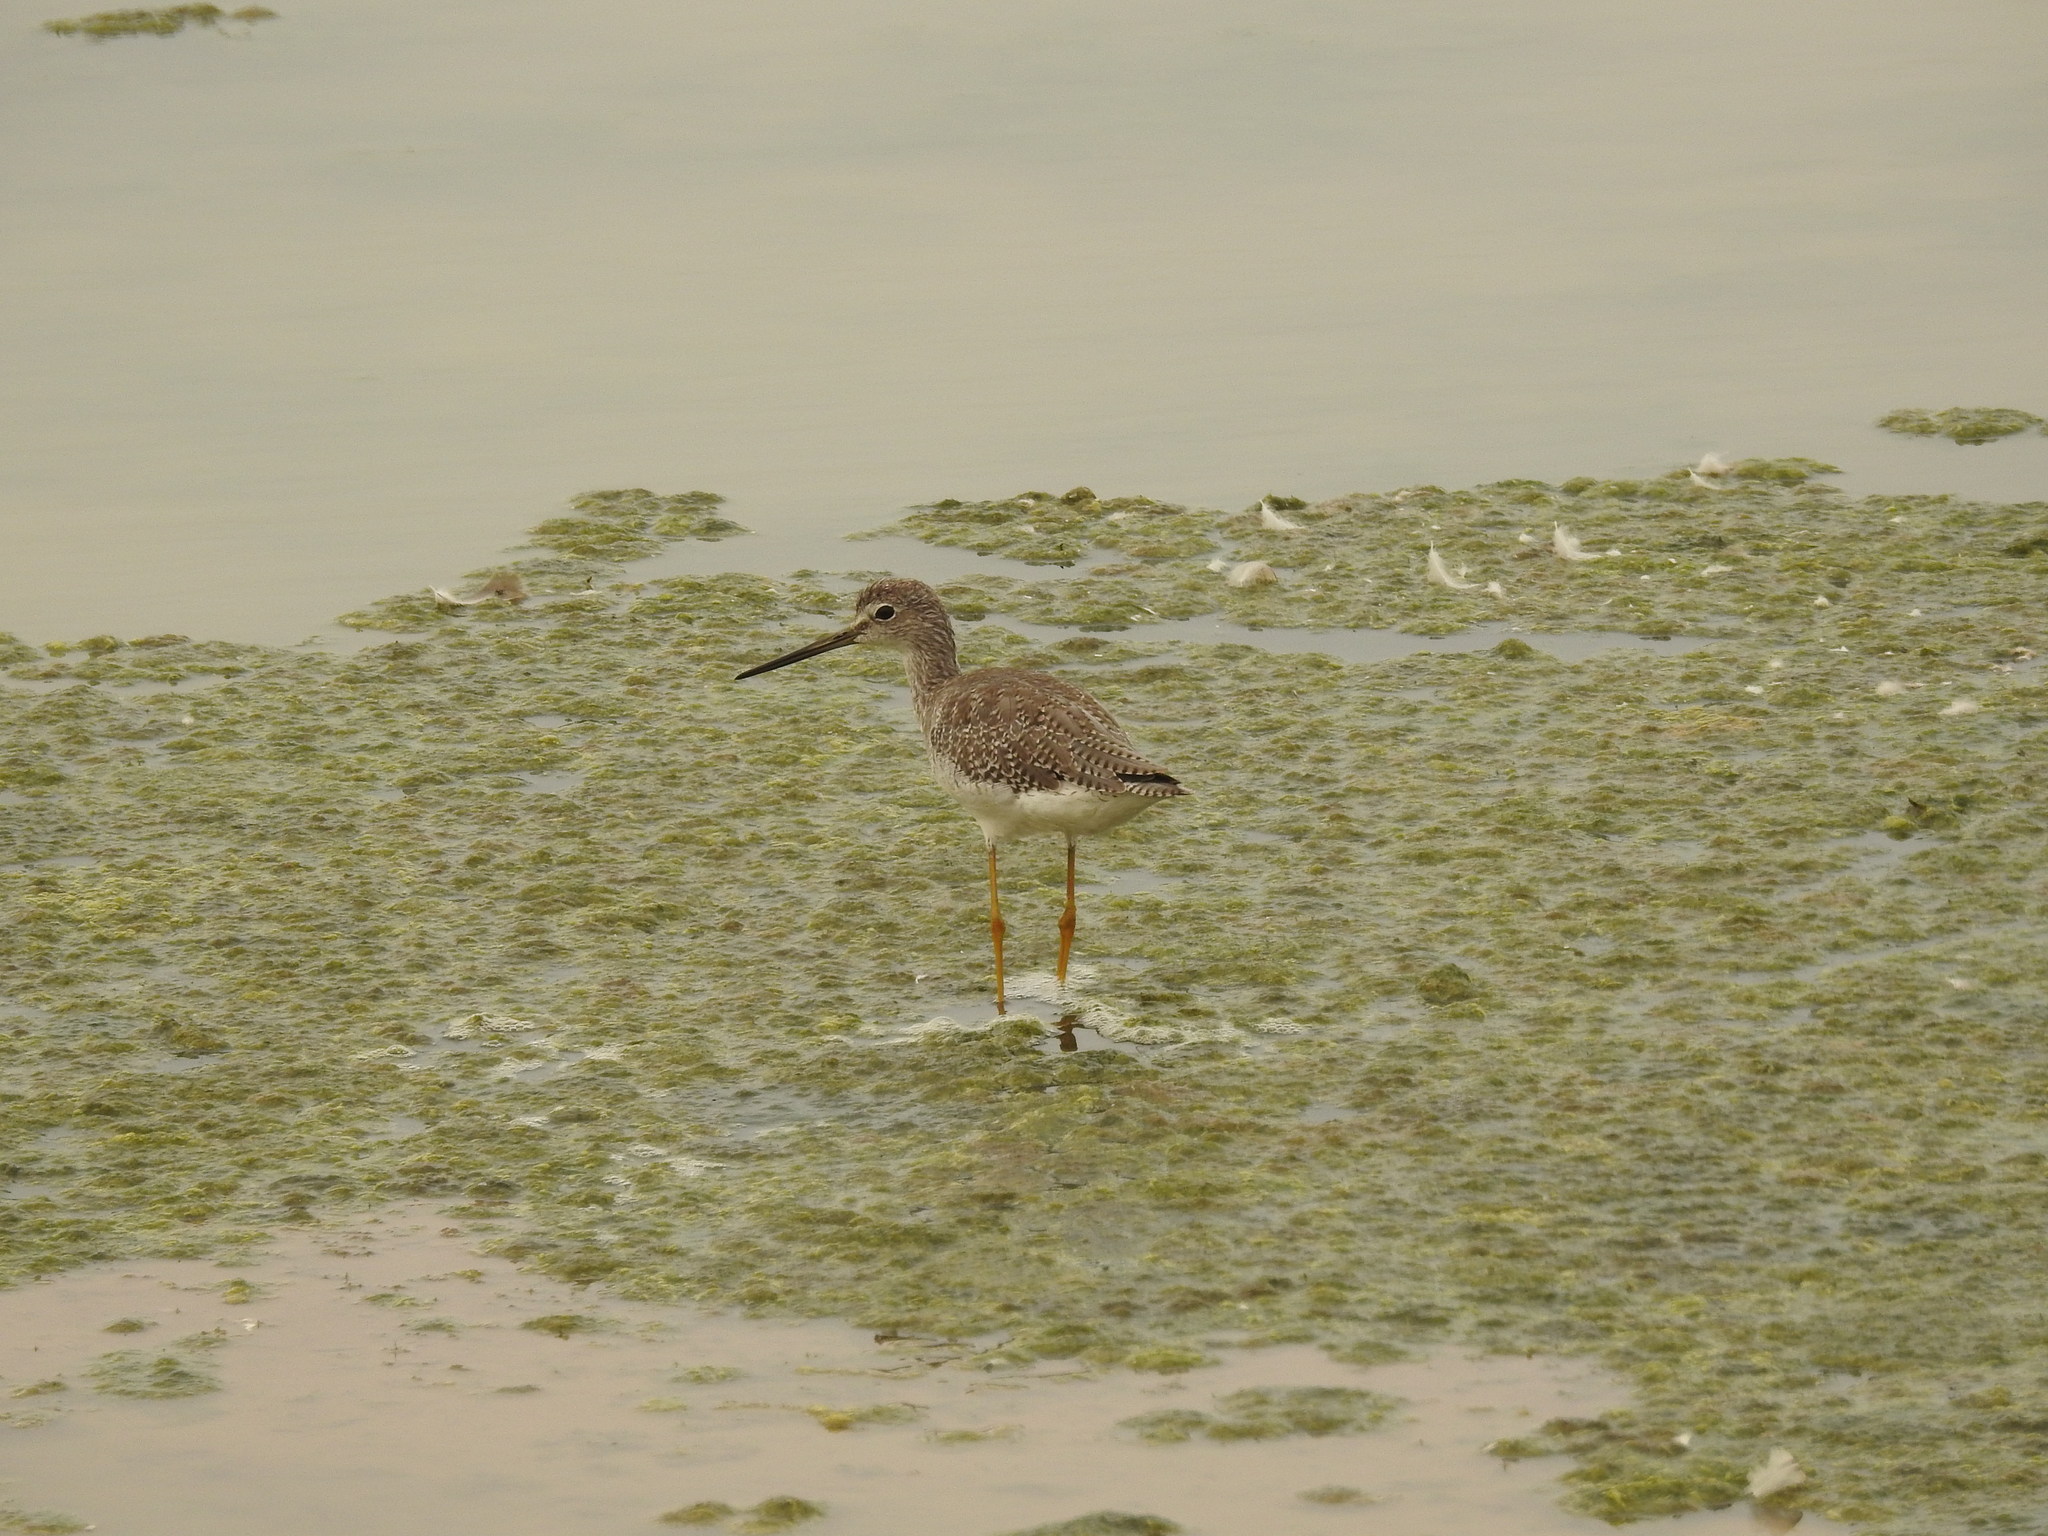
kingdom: Animalia
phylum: Chordata
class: Aves
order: Charadriiformes
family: Scolopacidae
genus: Tringa
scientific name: Tringa melanoleuca
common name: Greater yellowlegs
